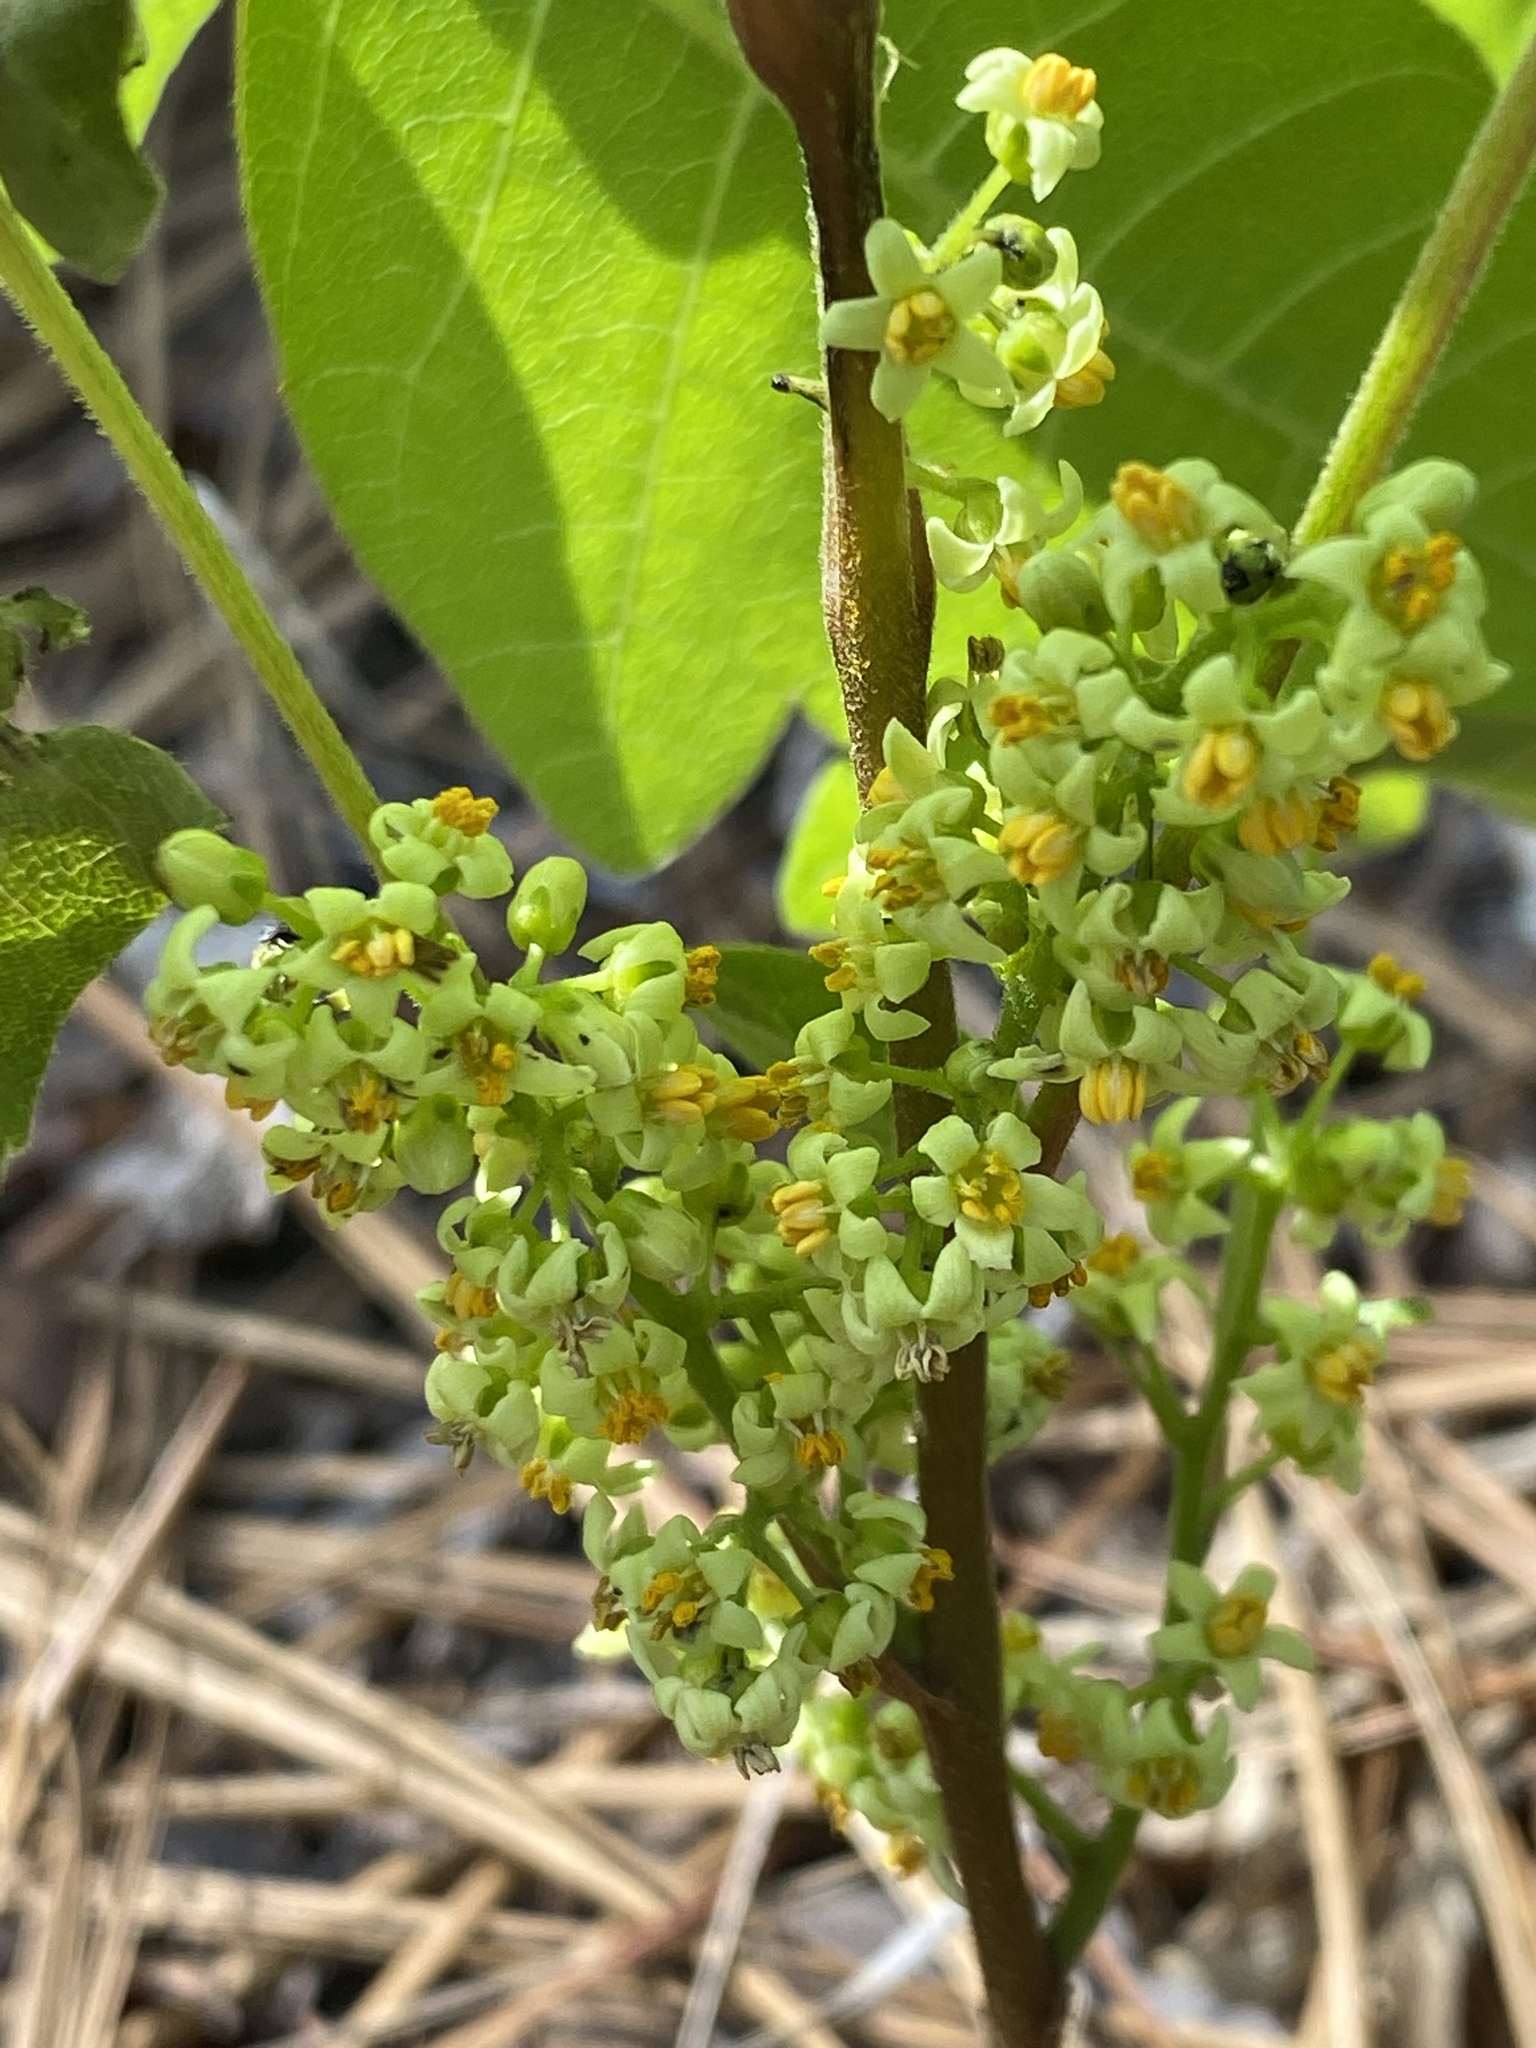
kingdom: Plantae
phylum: Tracheophyta
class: Magnoliopsida
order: Sapindales
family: Anacardiaceae
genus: Toxicodendron
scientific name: Toxicodendron pubescens
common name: Eastern poison-oak
